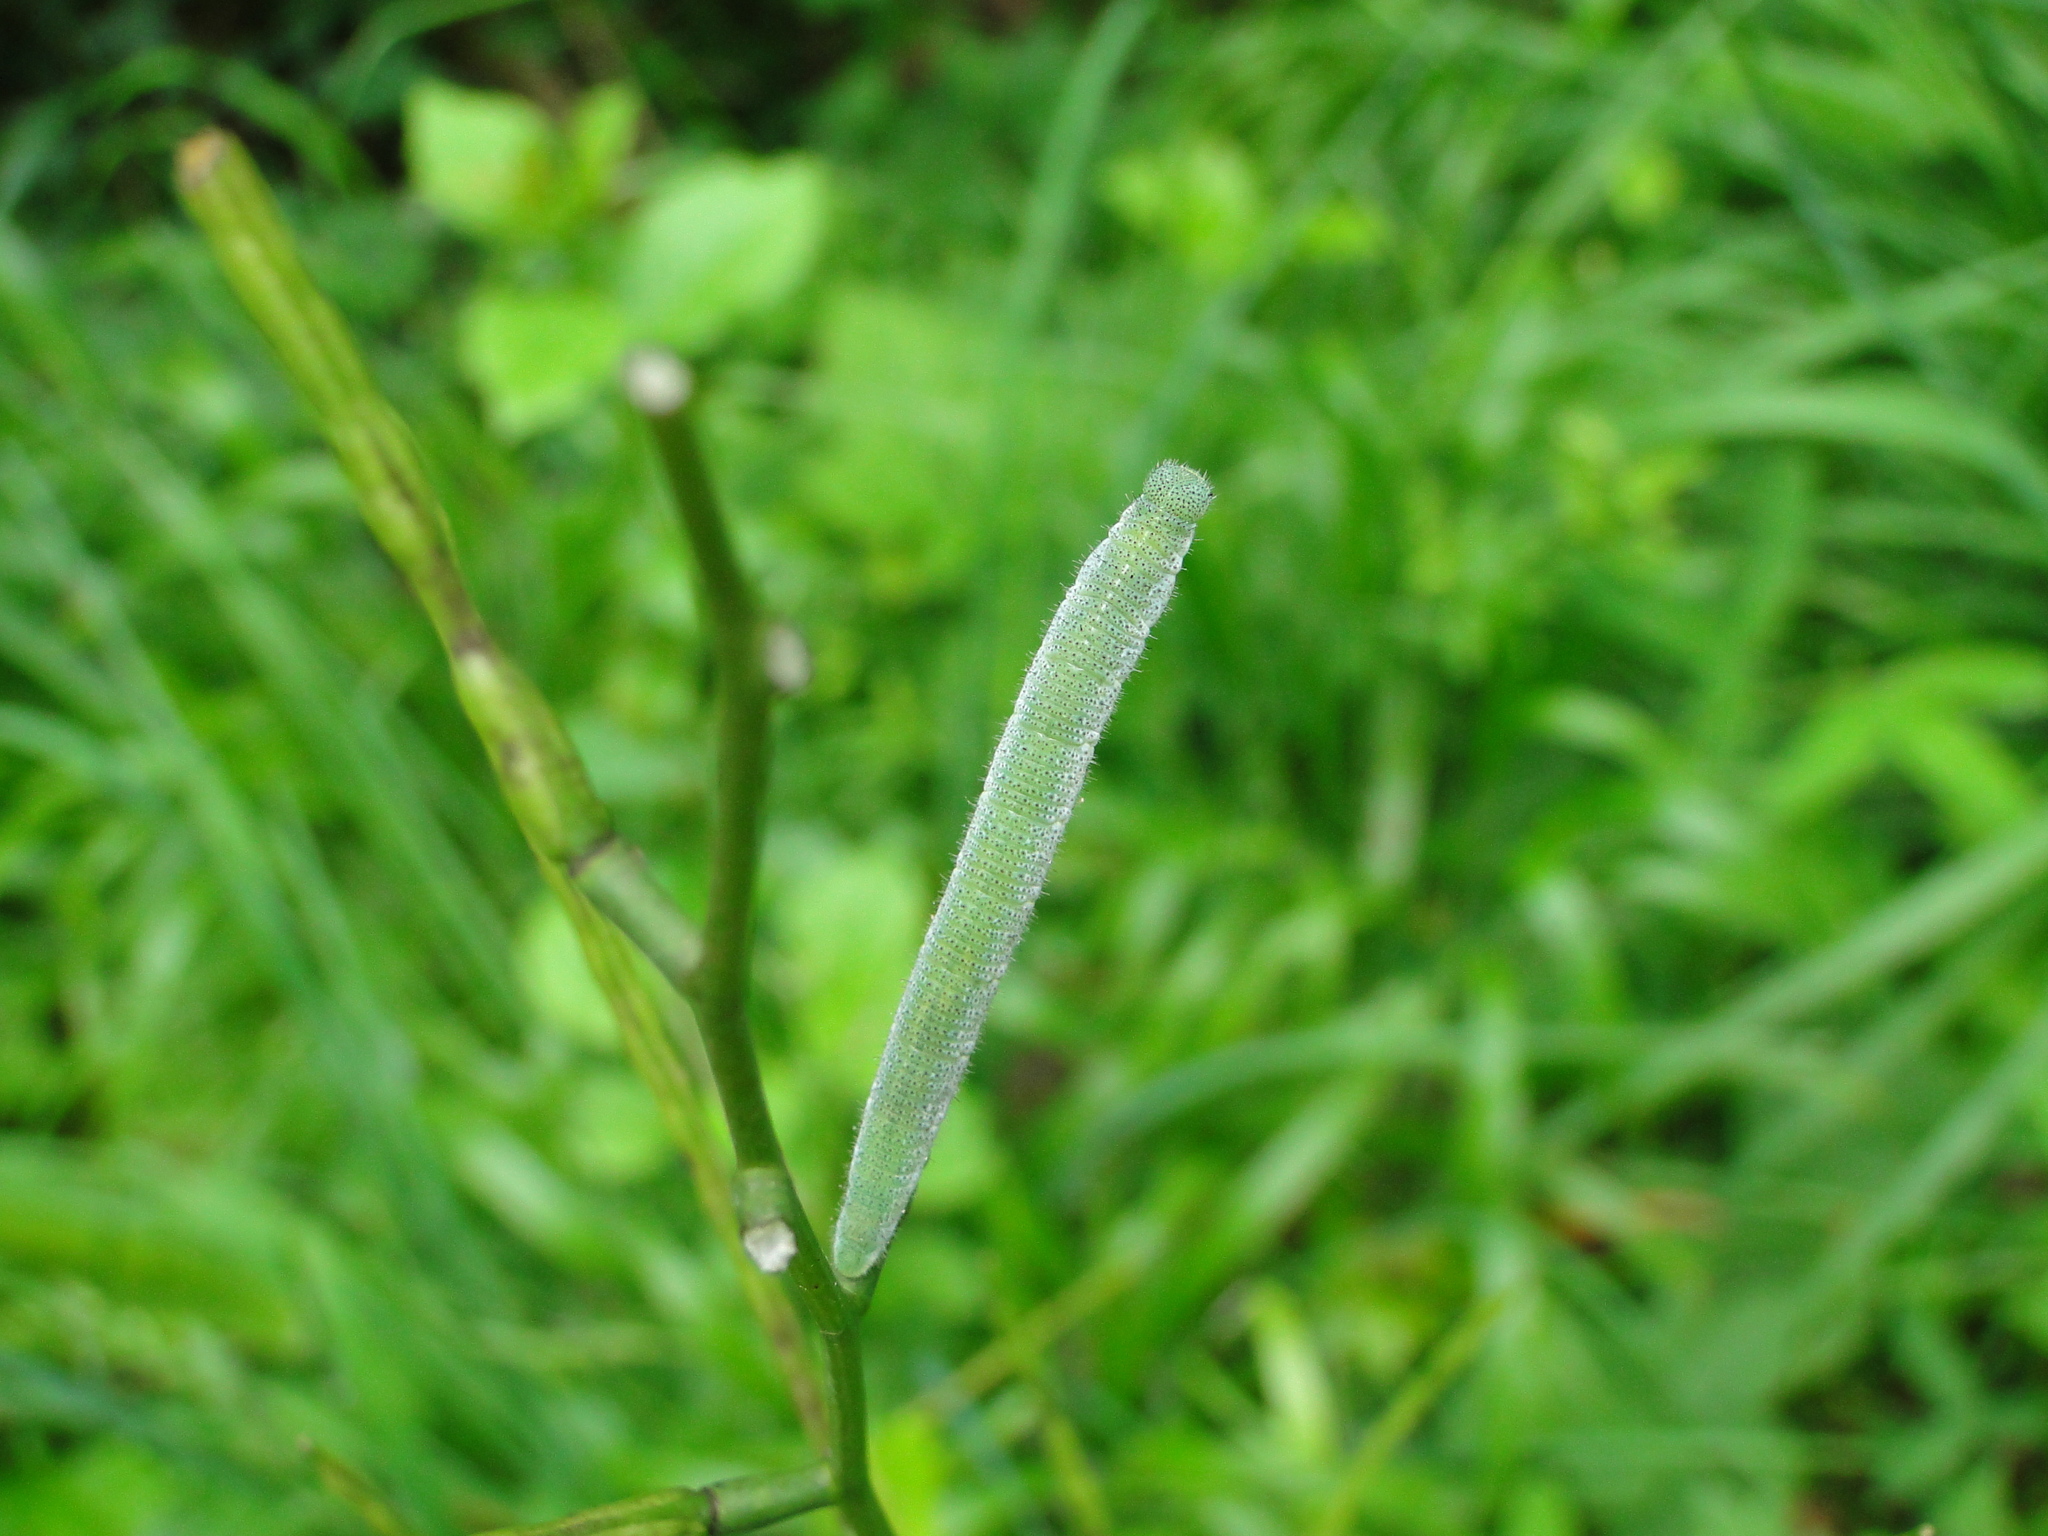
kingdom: Animalia
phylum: Arthropoda
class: Insecta
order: Lepidoptera
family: Pieridae
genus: Anthocharis
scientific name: Anthocharis cardamines
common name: Orange-tip
